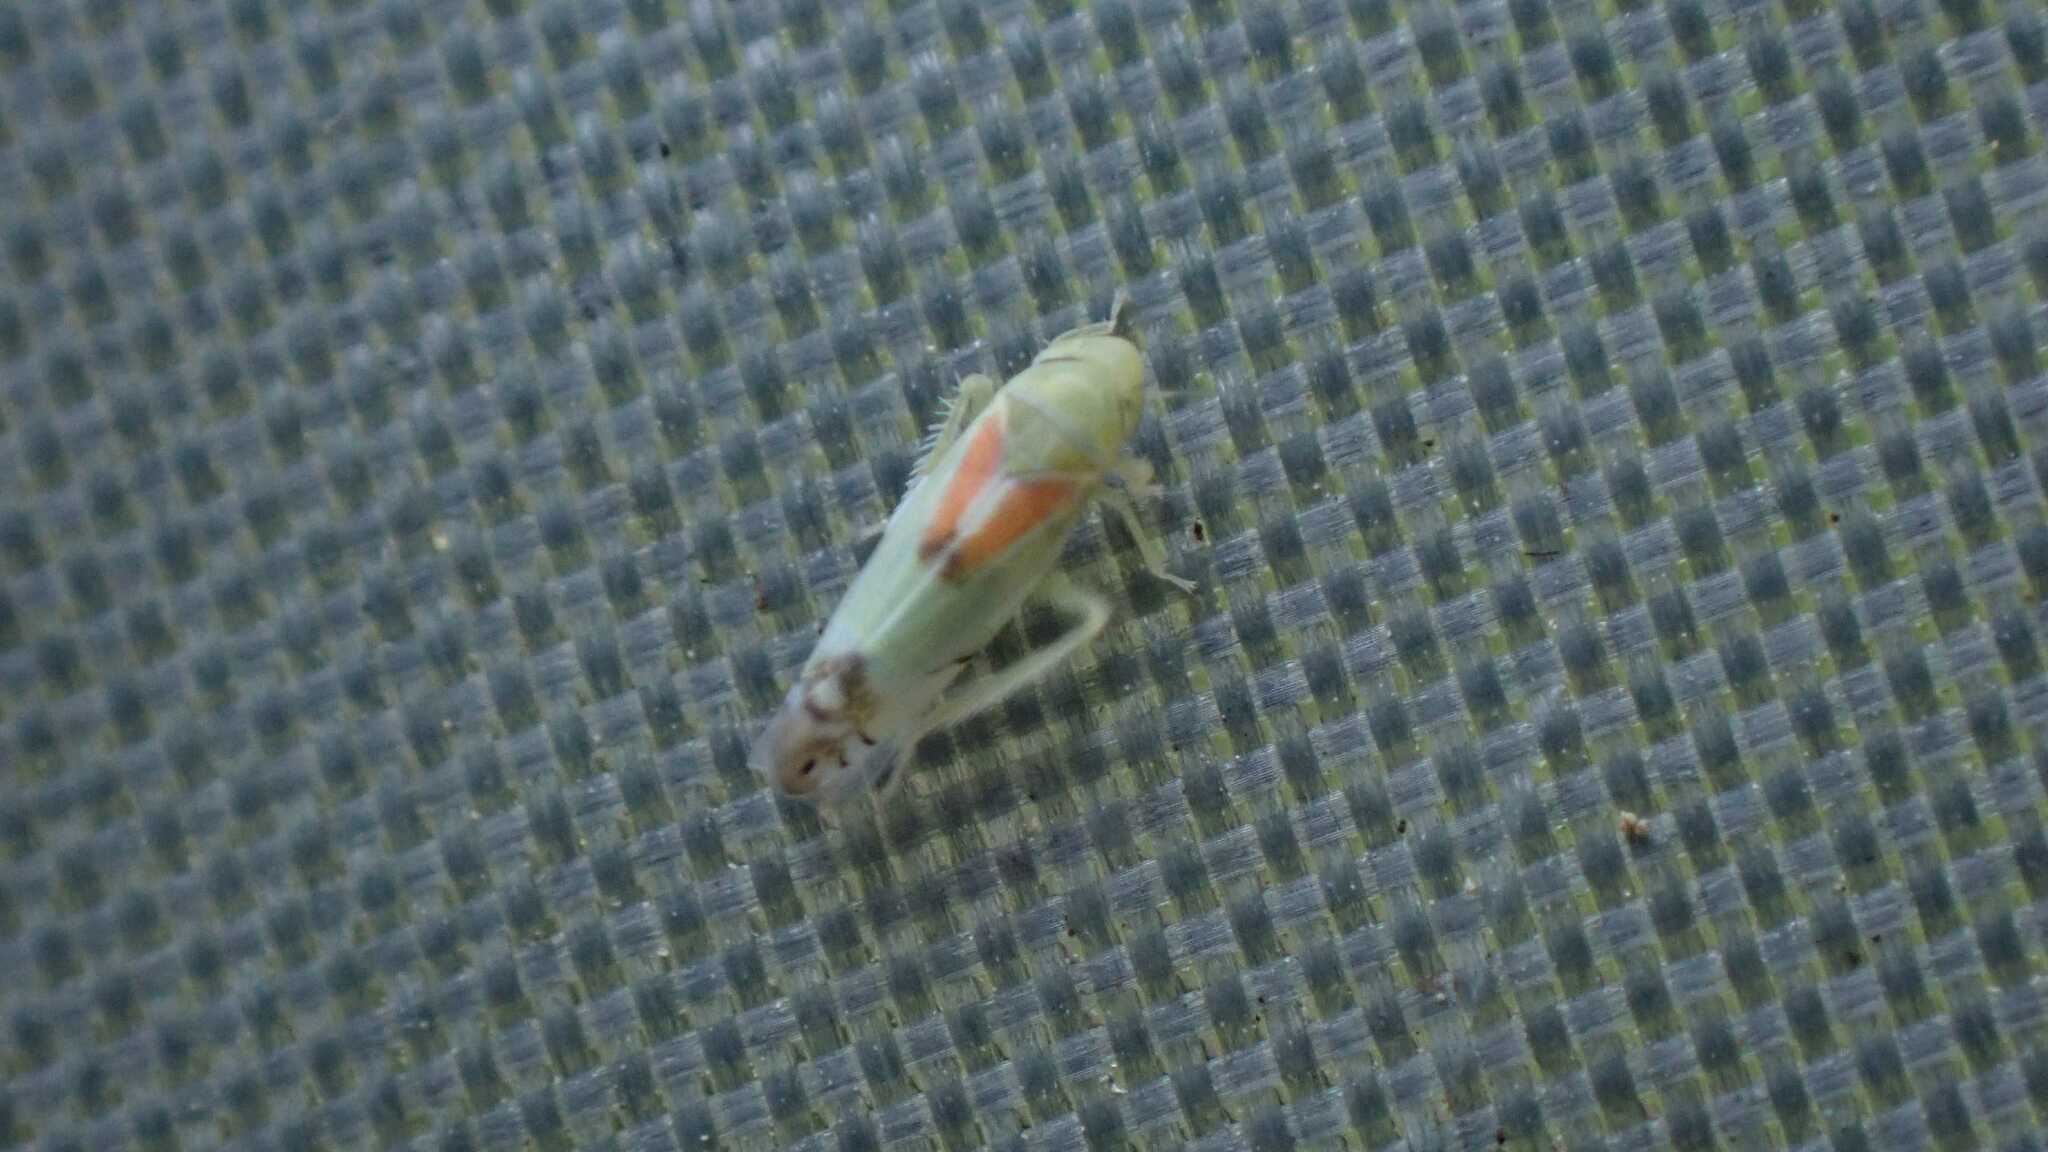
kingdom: Animalia
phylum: Arthropoda
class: Insecta
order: Hemiptera
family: Cicadellidae
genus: Zyginella
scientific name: Zyginella pulchra
